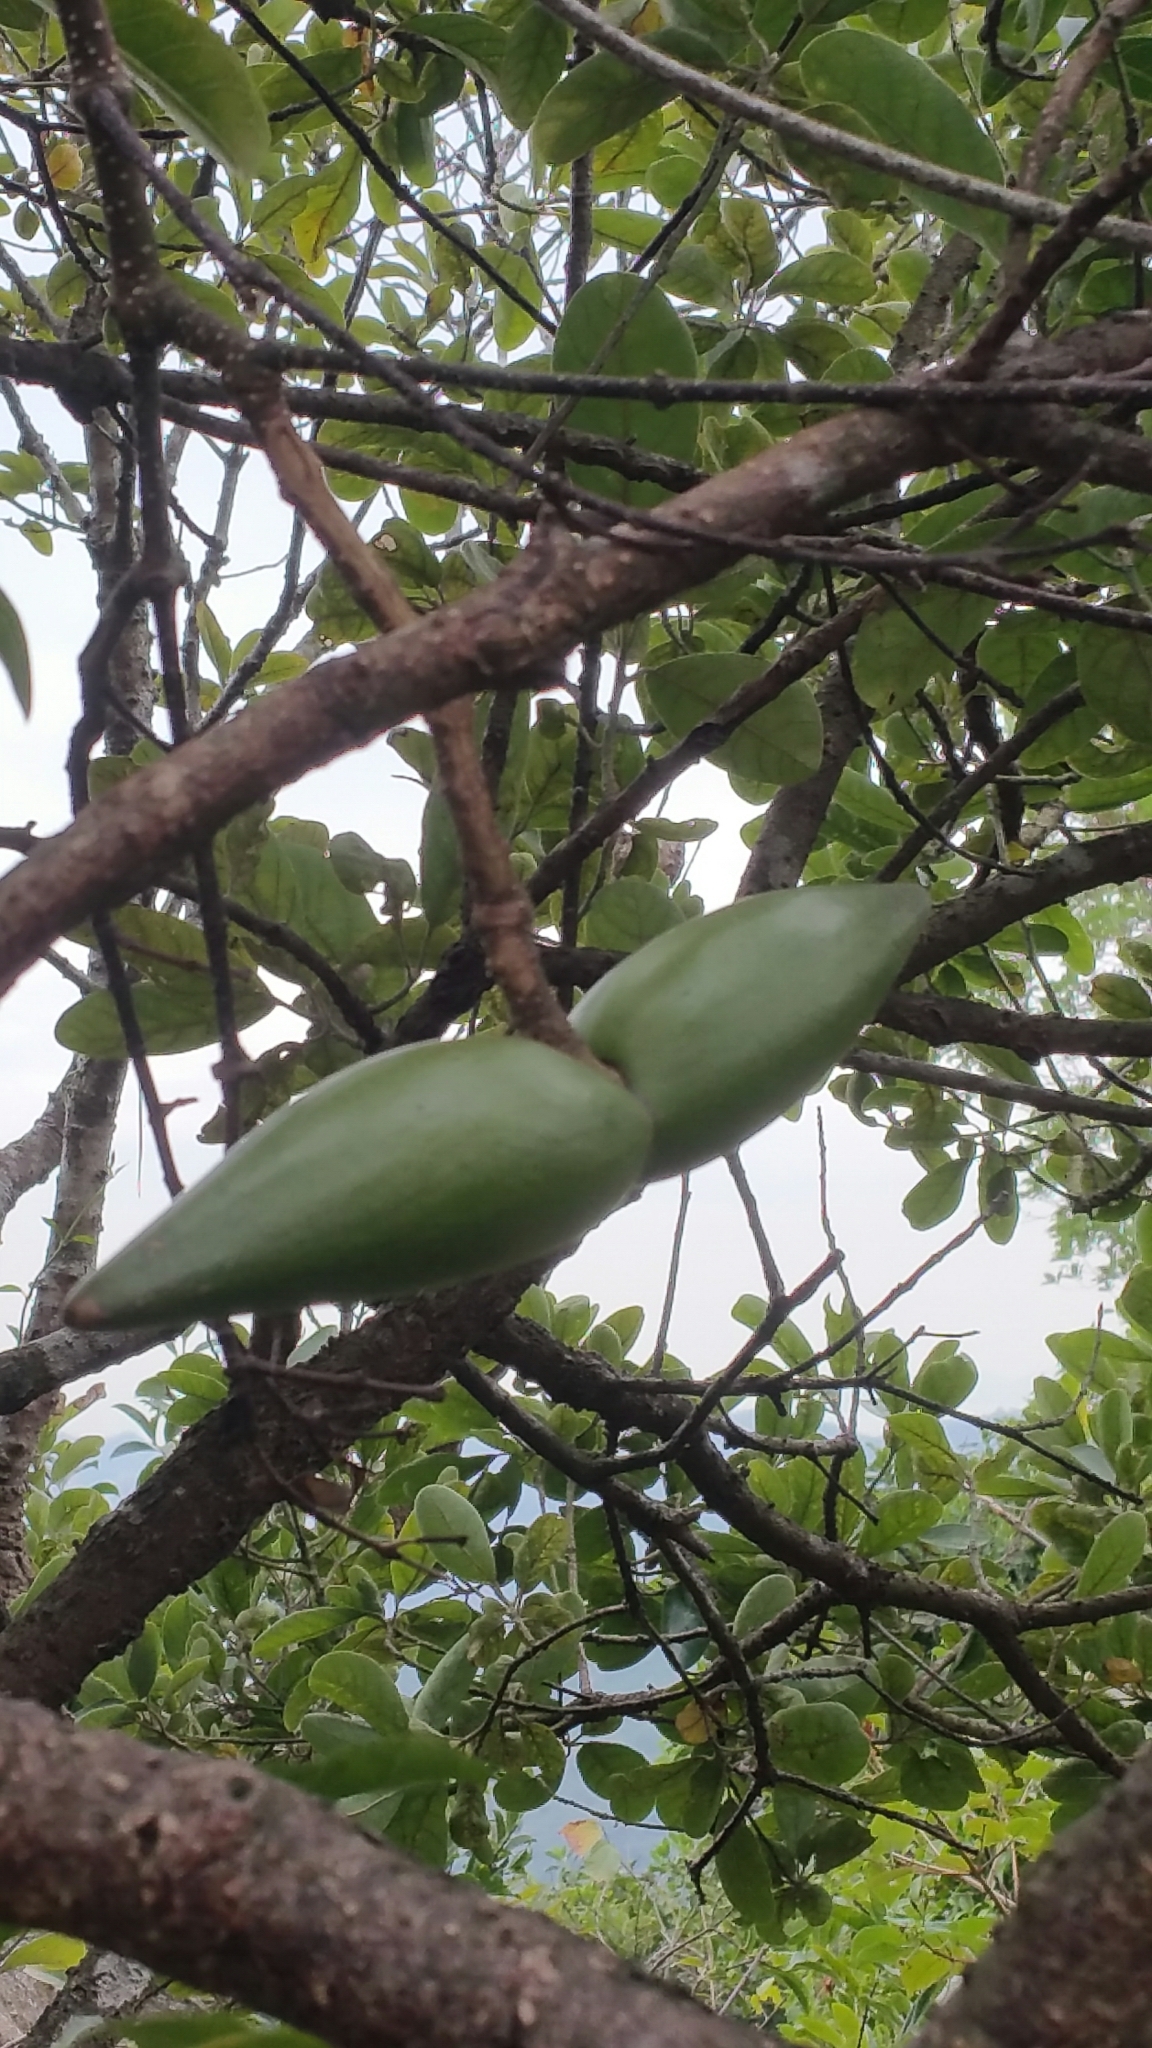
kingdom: Plantae
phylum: Tracheophyta
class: Magnoliopsida
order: Gentianales
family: Apocynaceae
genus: Strophanthus
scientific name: Strophanthus divaricatus
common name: Goat-horns
